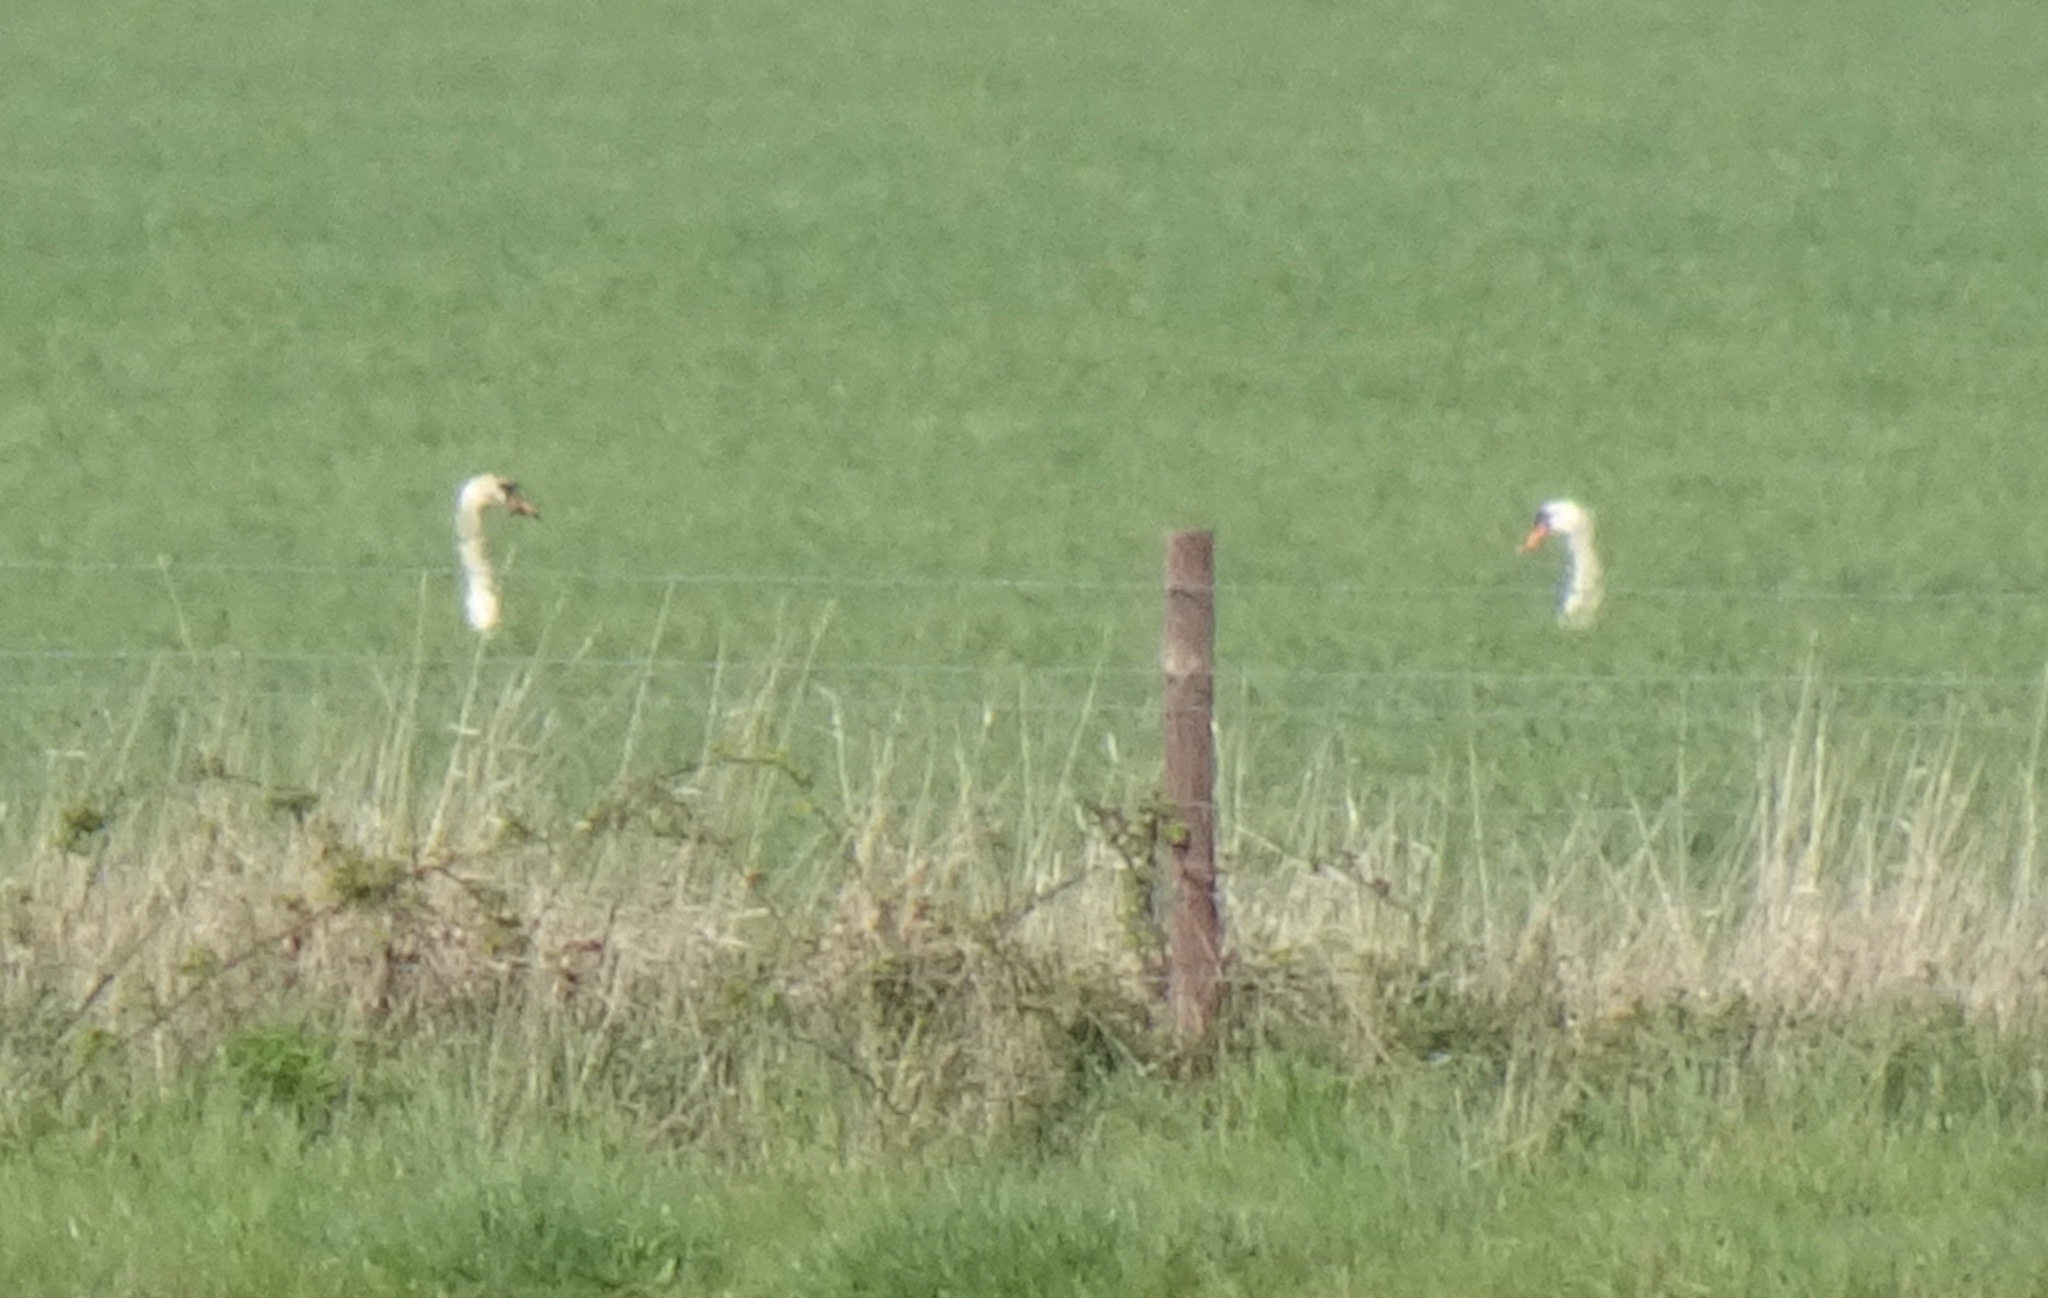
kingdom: Animalia
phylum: Chordata
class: Aves
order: Anseriformes
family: Anatidae
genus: Cygnus
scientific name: Cygnus olor
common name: Mute swan
